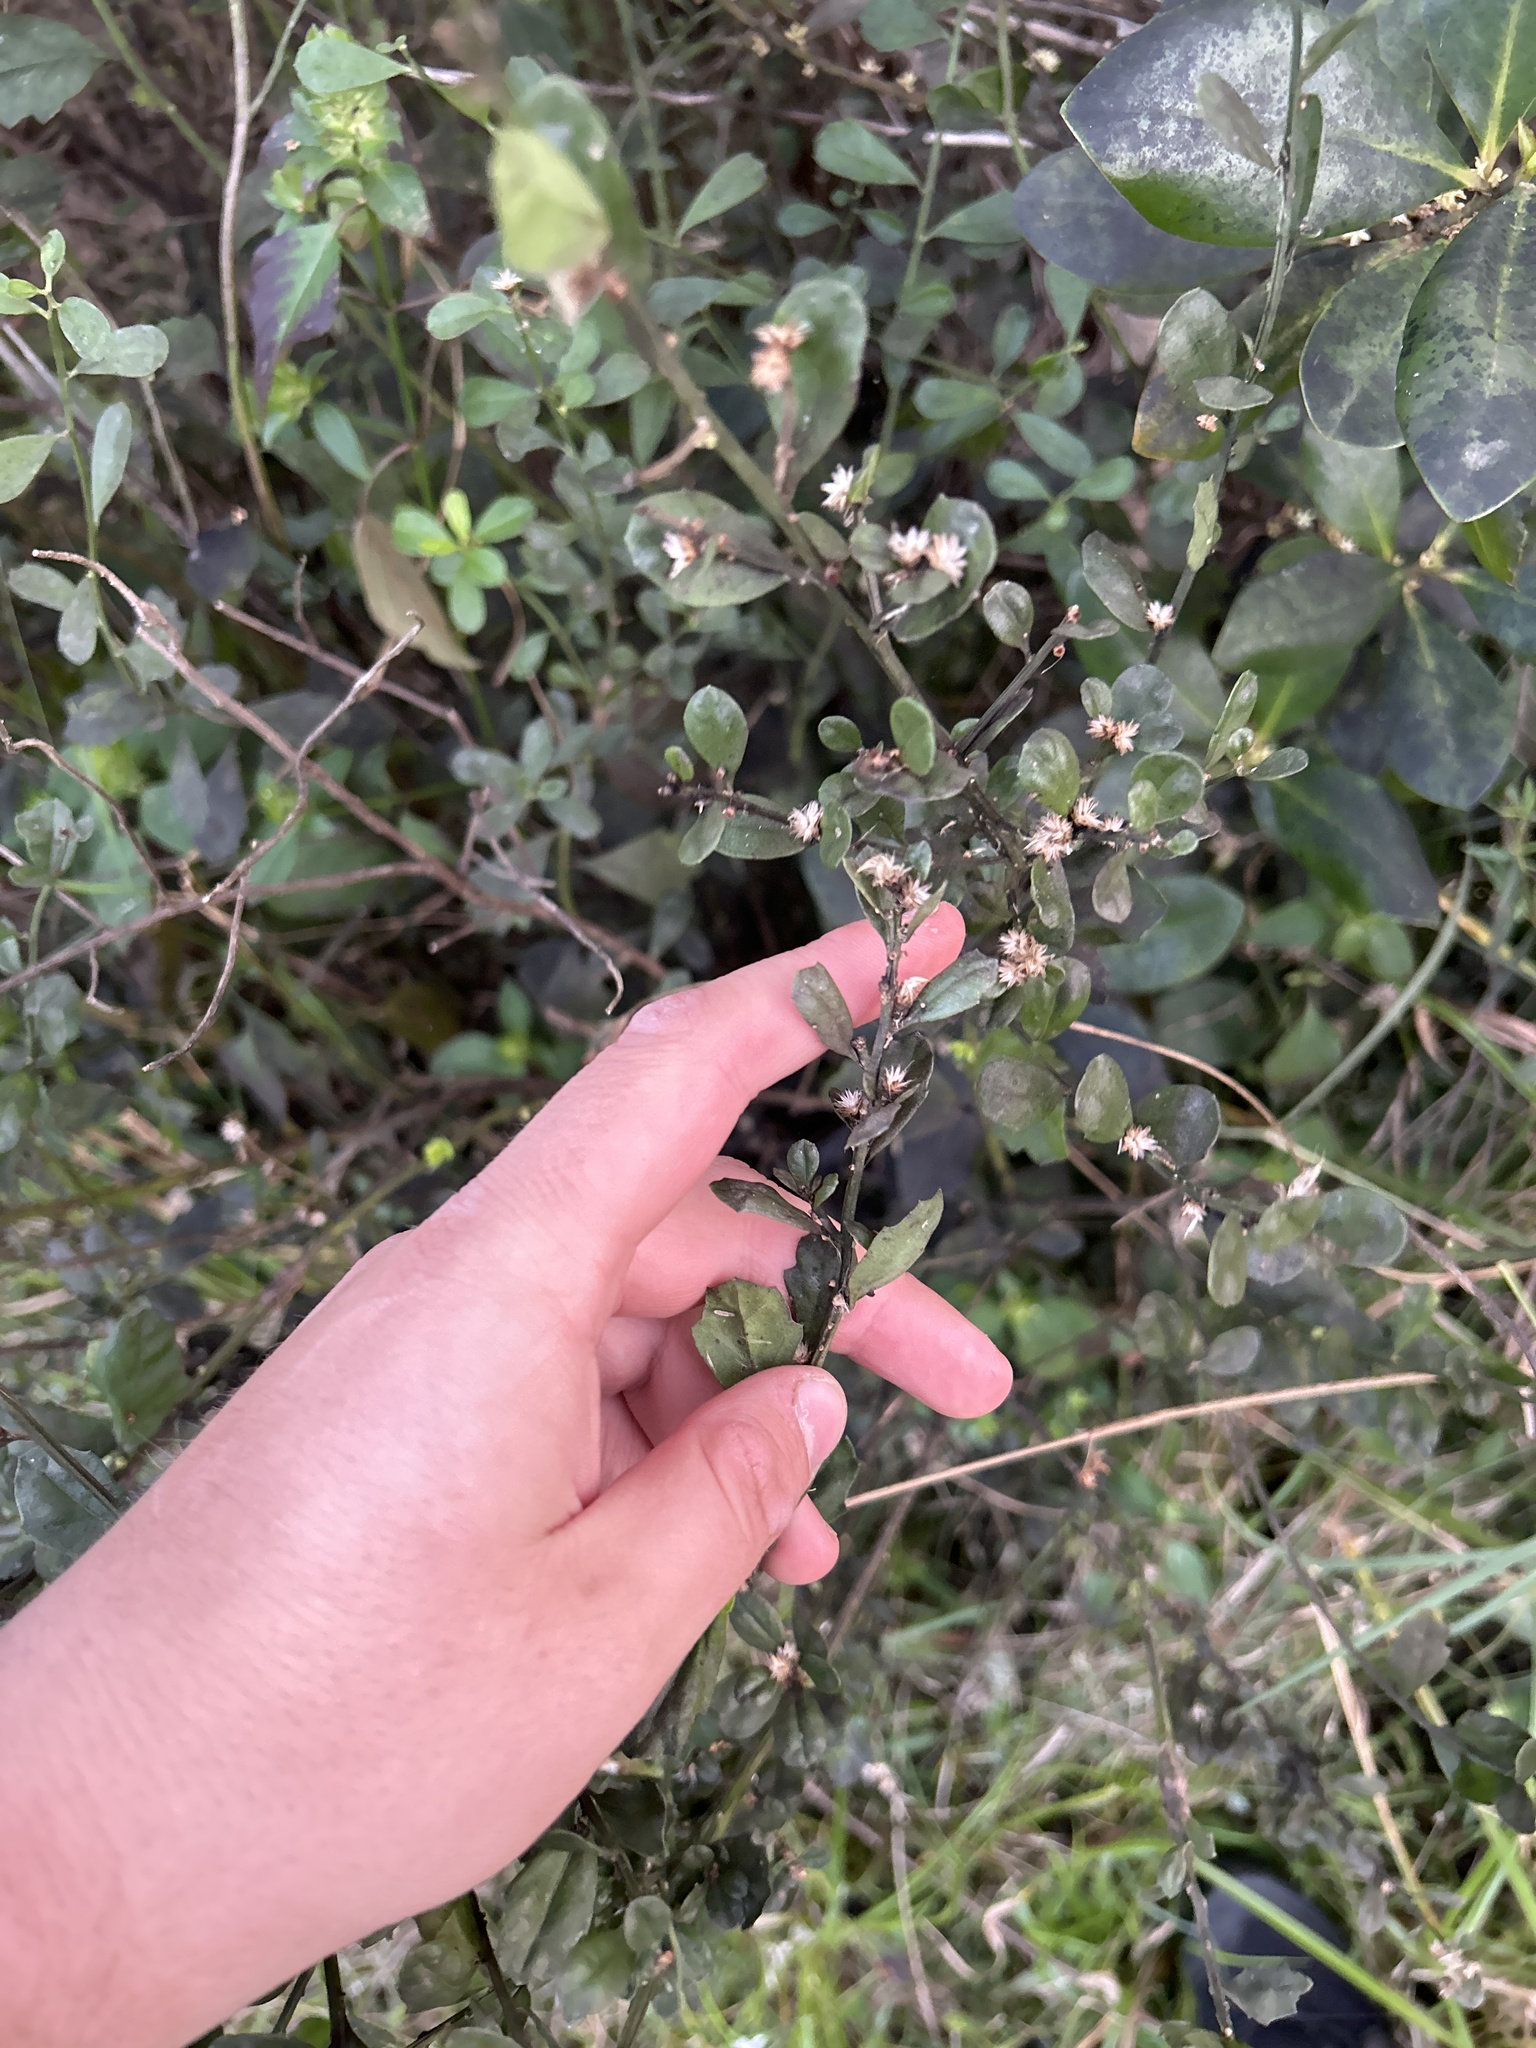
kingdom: Plantae
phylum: Tracheophyta
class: Magnoliopsida
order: Asterales
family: Asteraceae
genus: Baccharis
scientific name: Baccharis glomeruliflora
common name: Silverling groundsel bush
